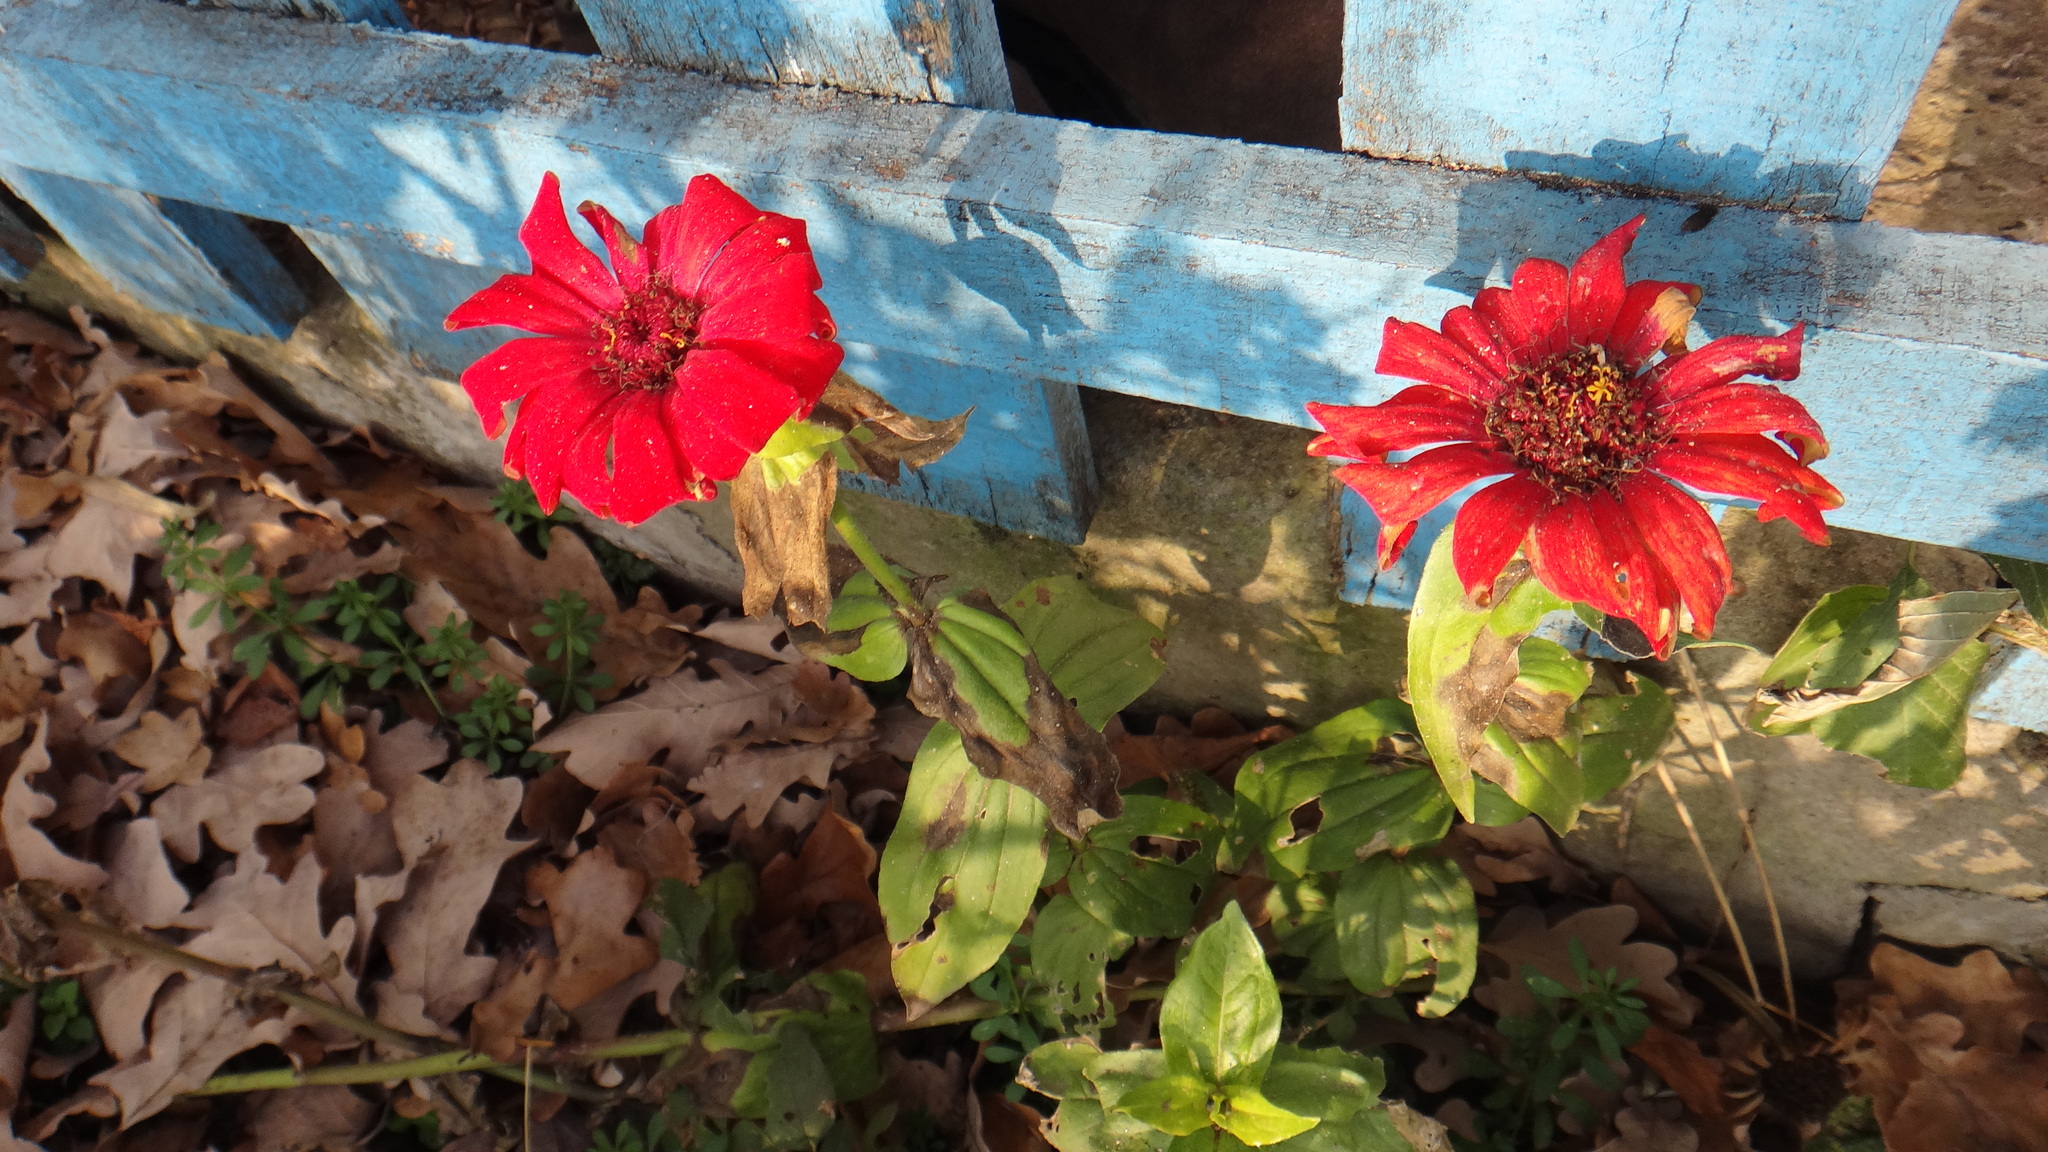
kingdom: Plantae
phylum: Tracheophyta
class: Magnoliopsida
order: Asterales
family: Asteraceae
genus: Zinnia
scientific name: Zinnia elegans
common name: Youth-and-age
